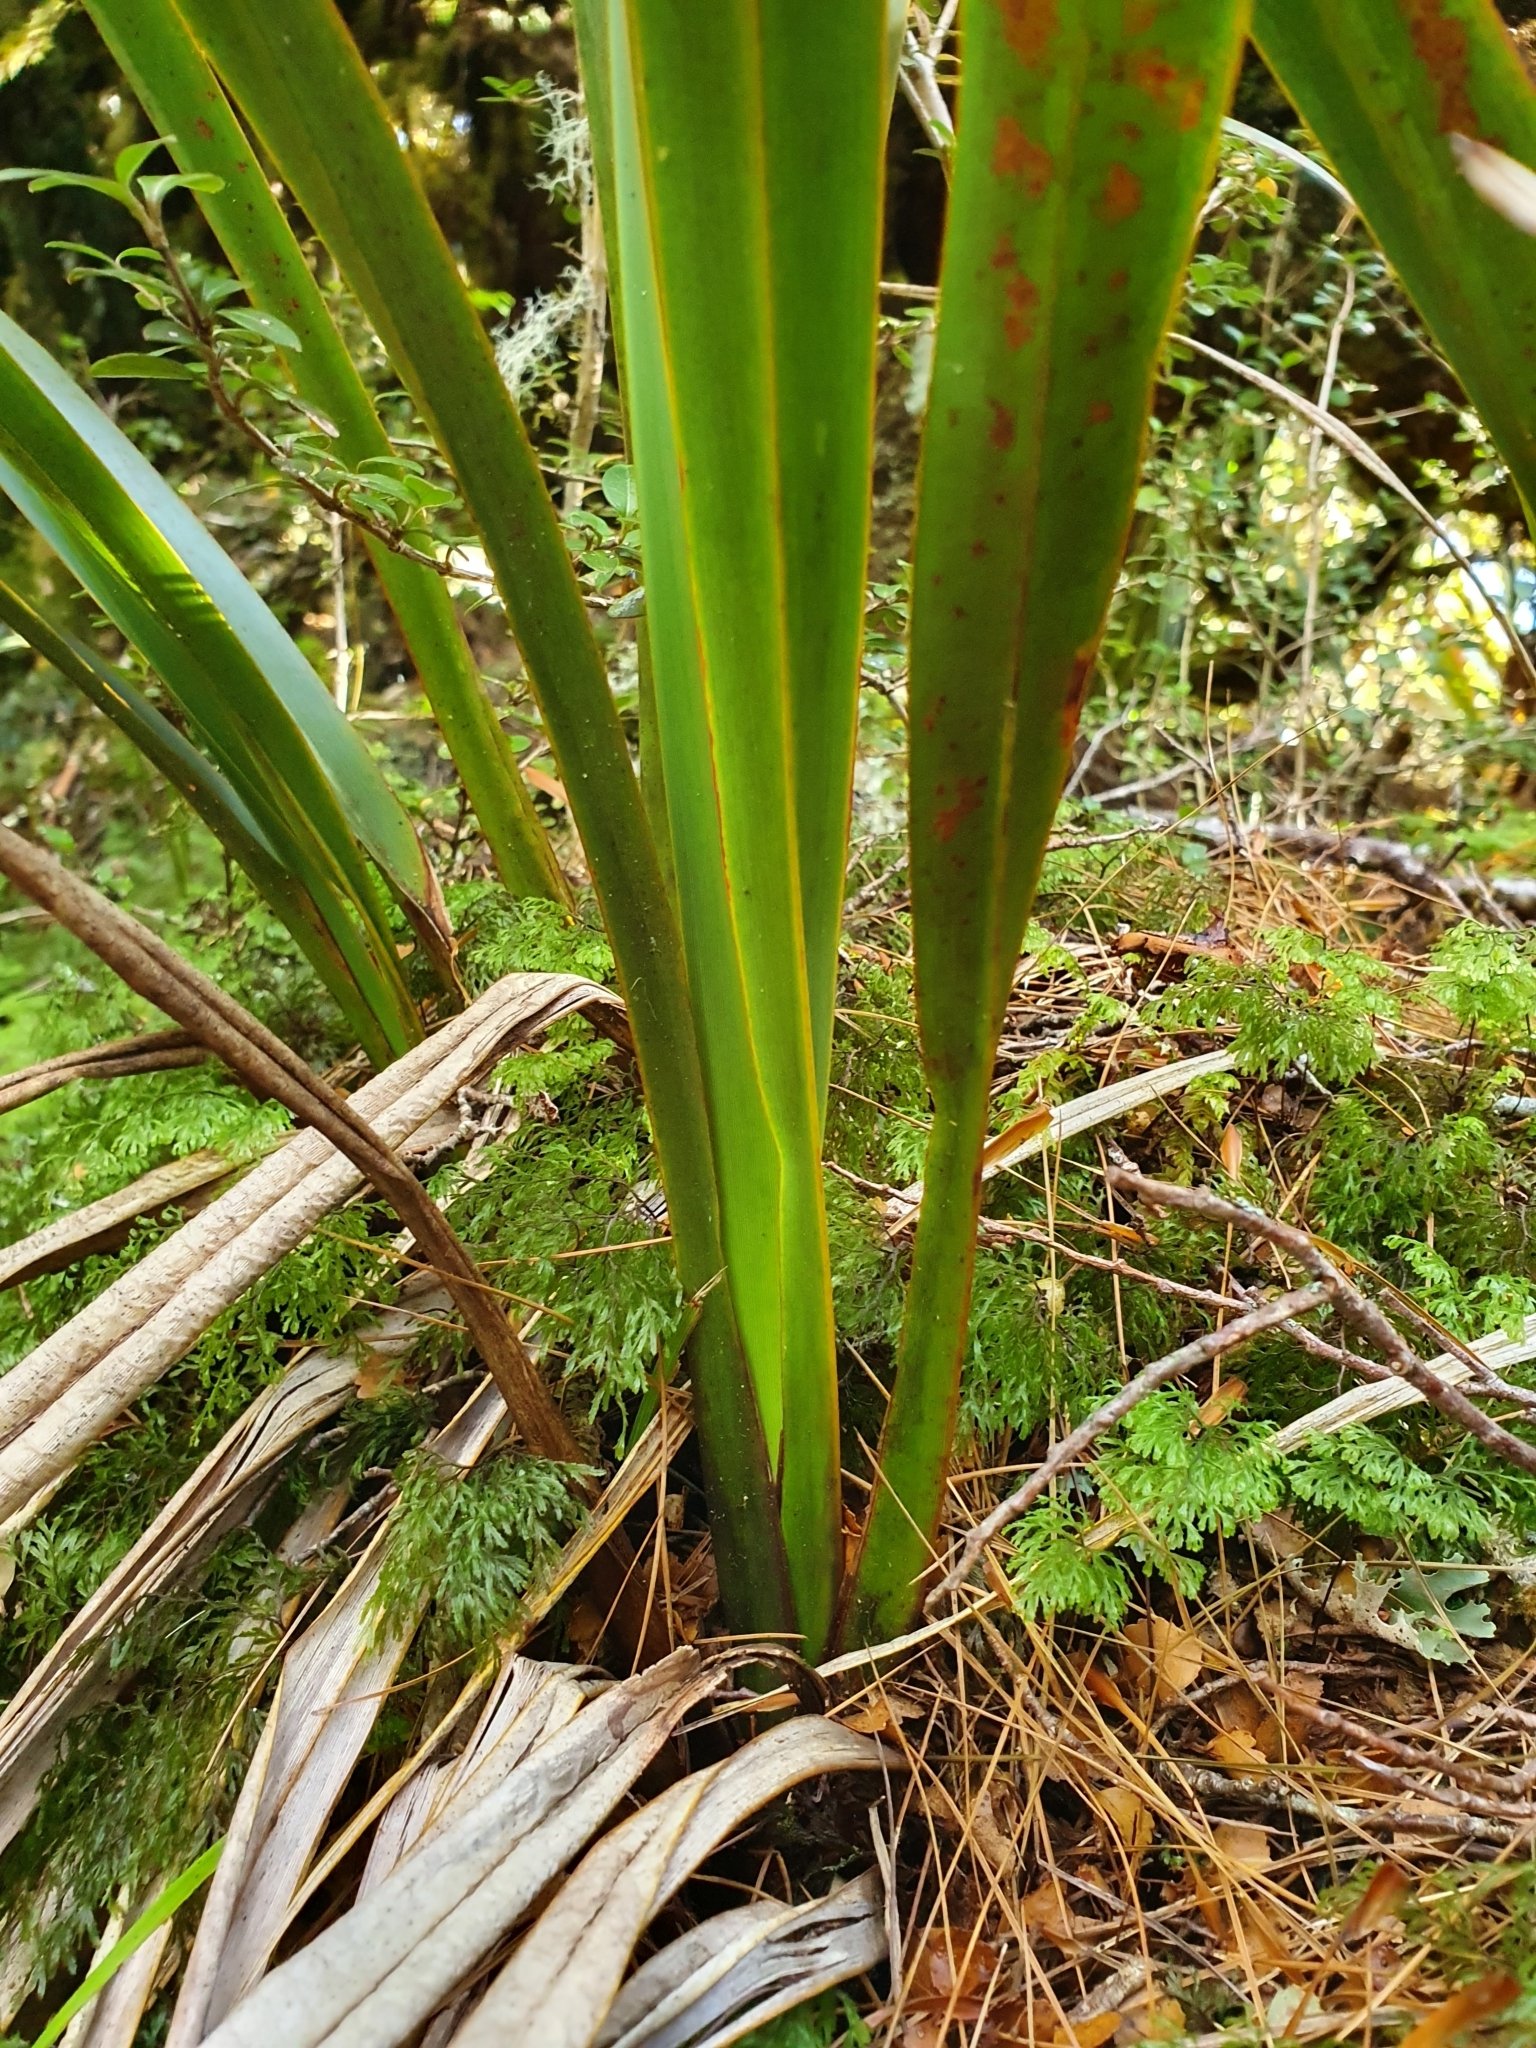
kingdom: Plantae
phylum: Tracheophyta
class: Liliopsida
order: Asparagales
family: Asphodelaceae
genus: Phormium
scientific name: Phormium colensoi
